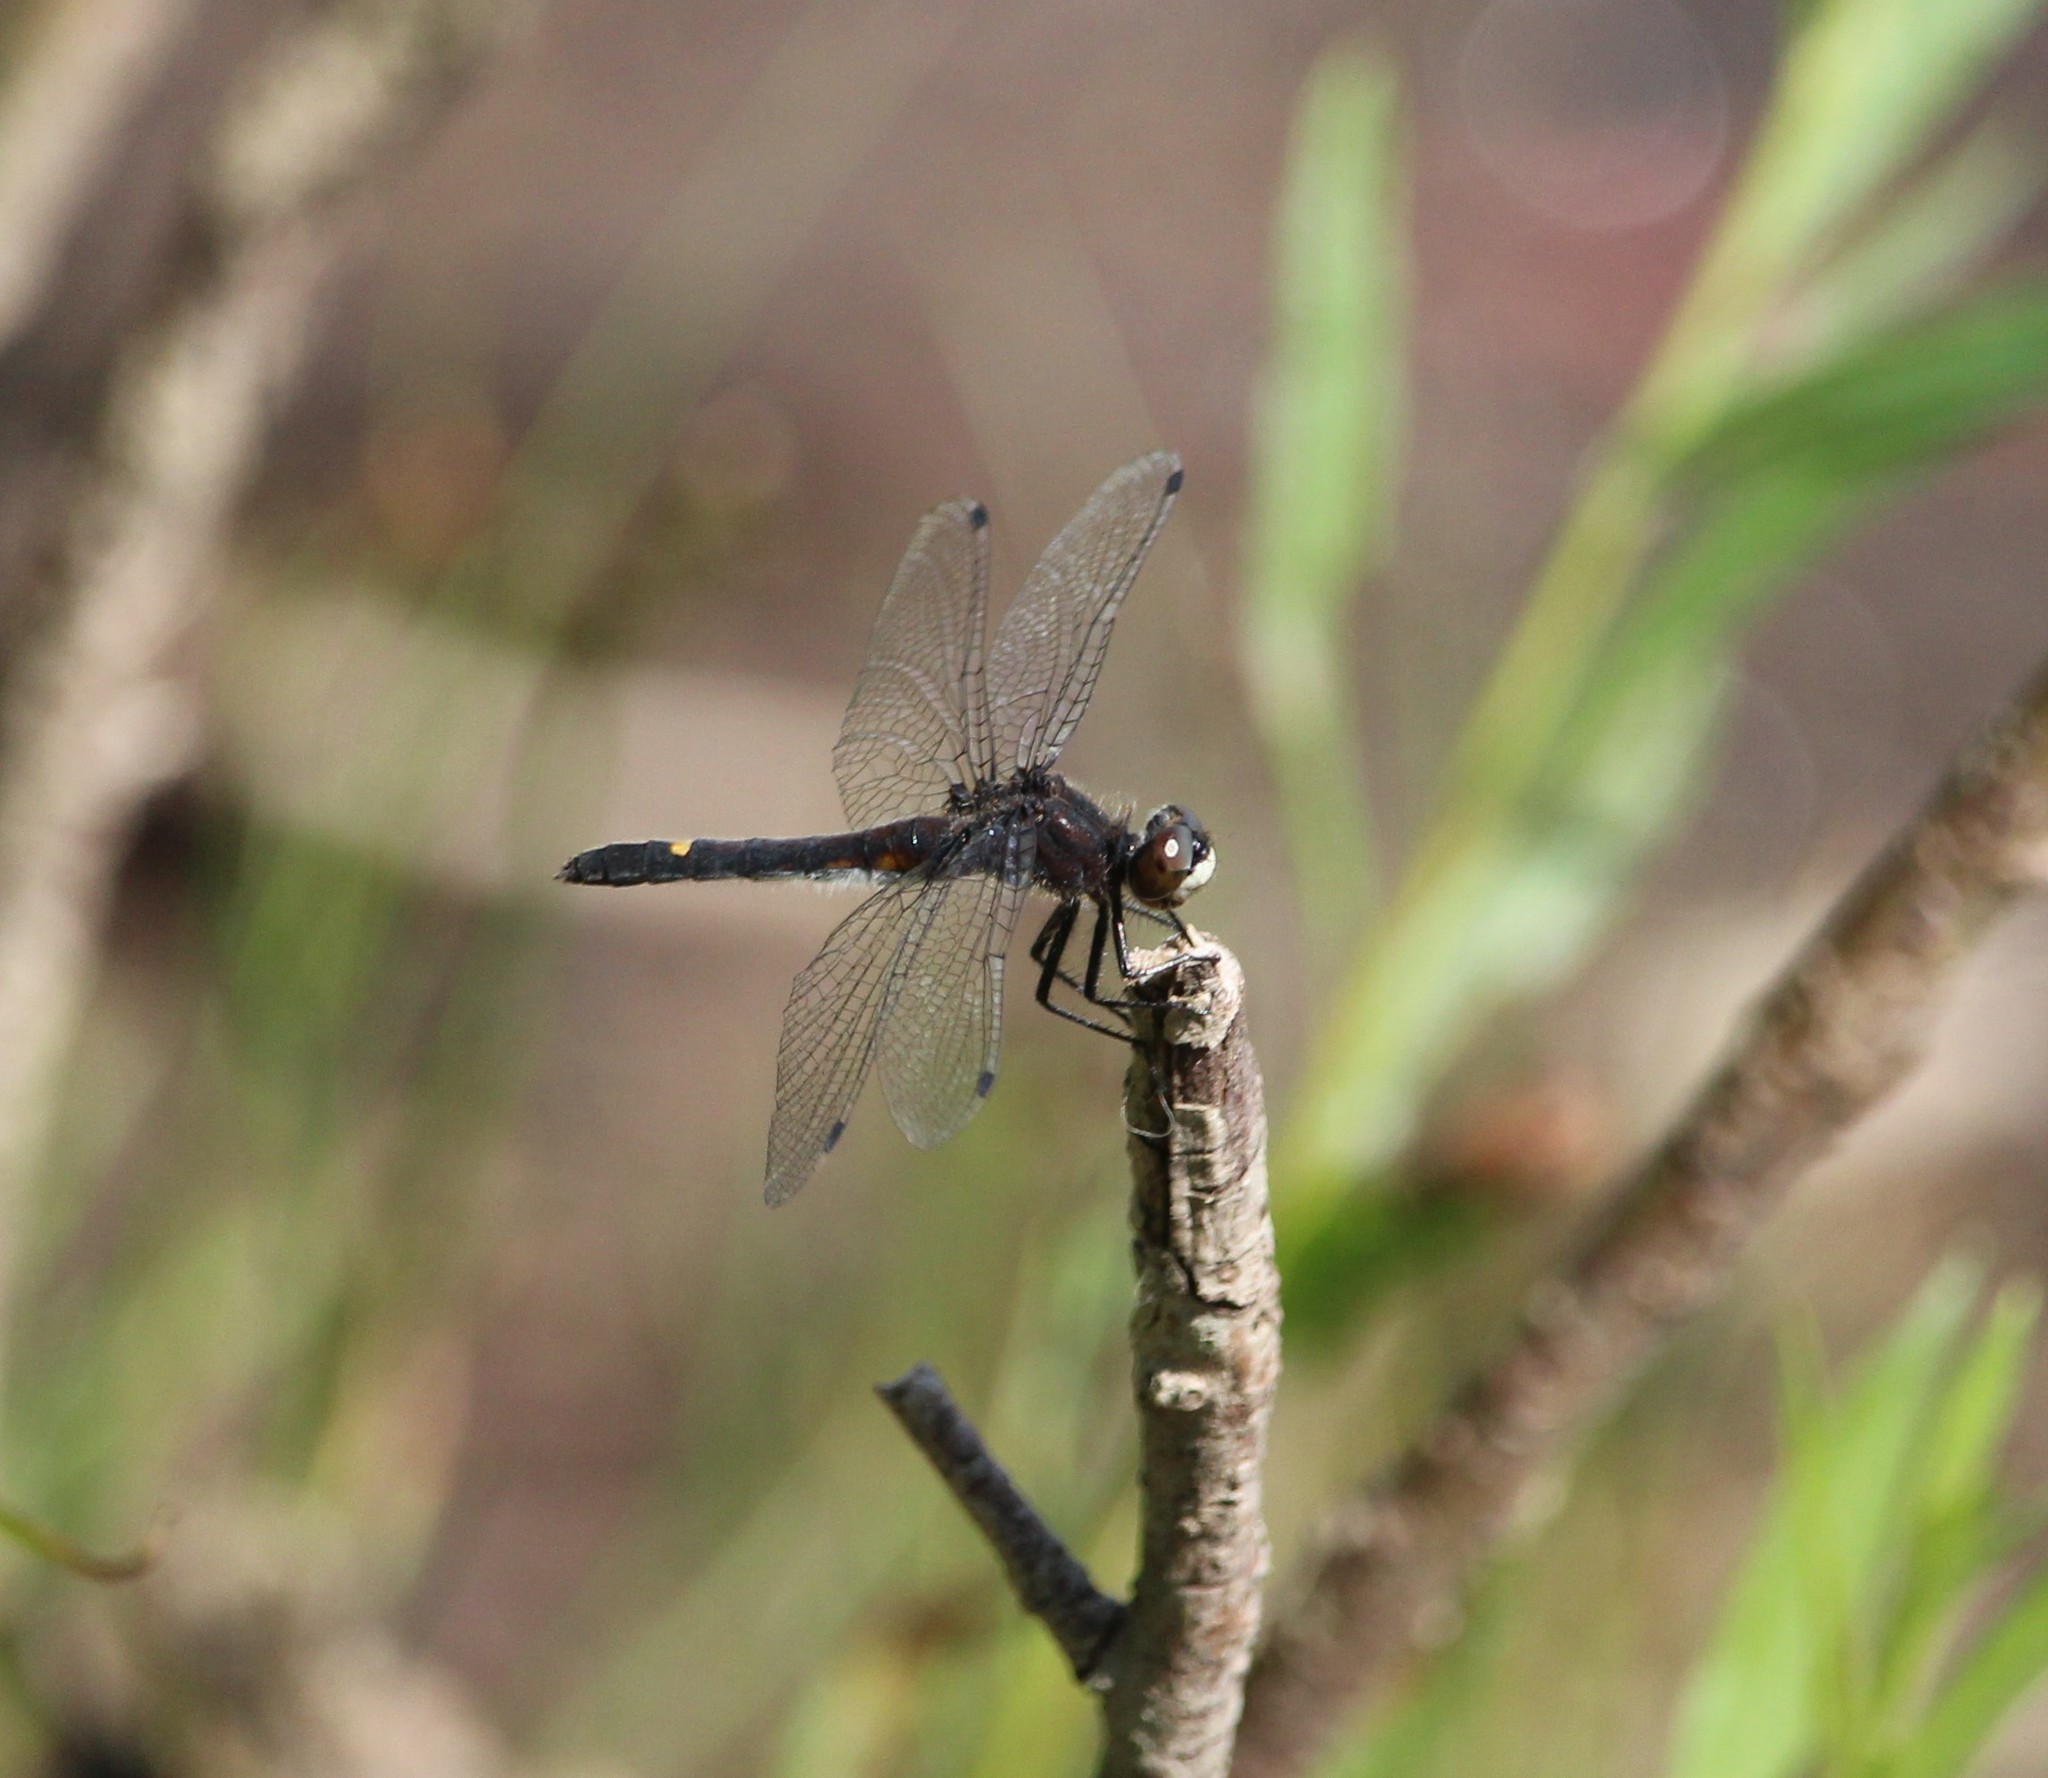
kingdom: Animalia
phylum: Arthropoda
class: Insecta
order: Odonata
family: Libellulidae
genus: Leucorrhinia
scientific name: Leucorrhinia intacta
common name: Dot-tailed whiteface
